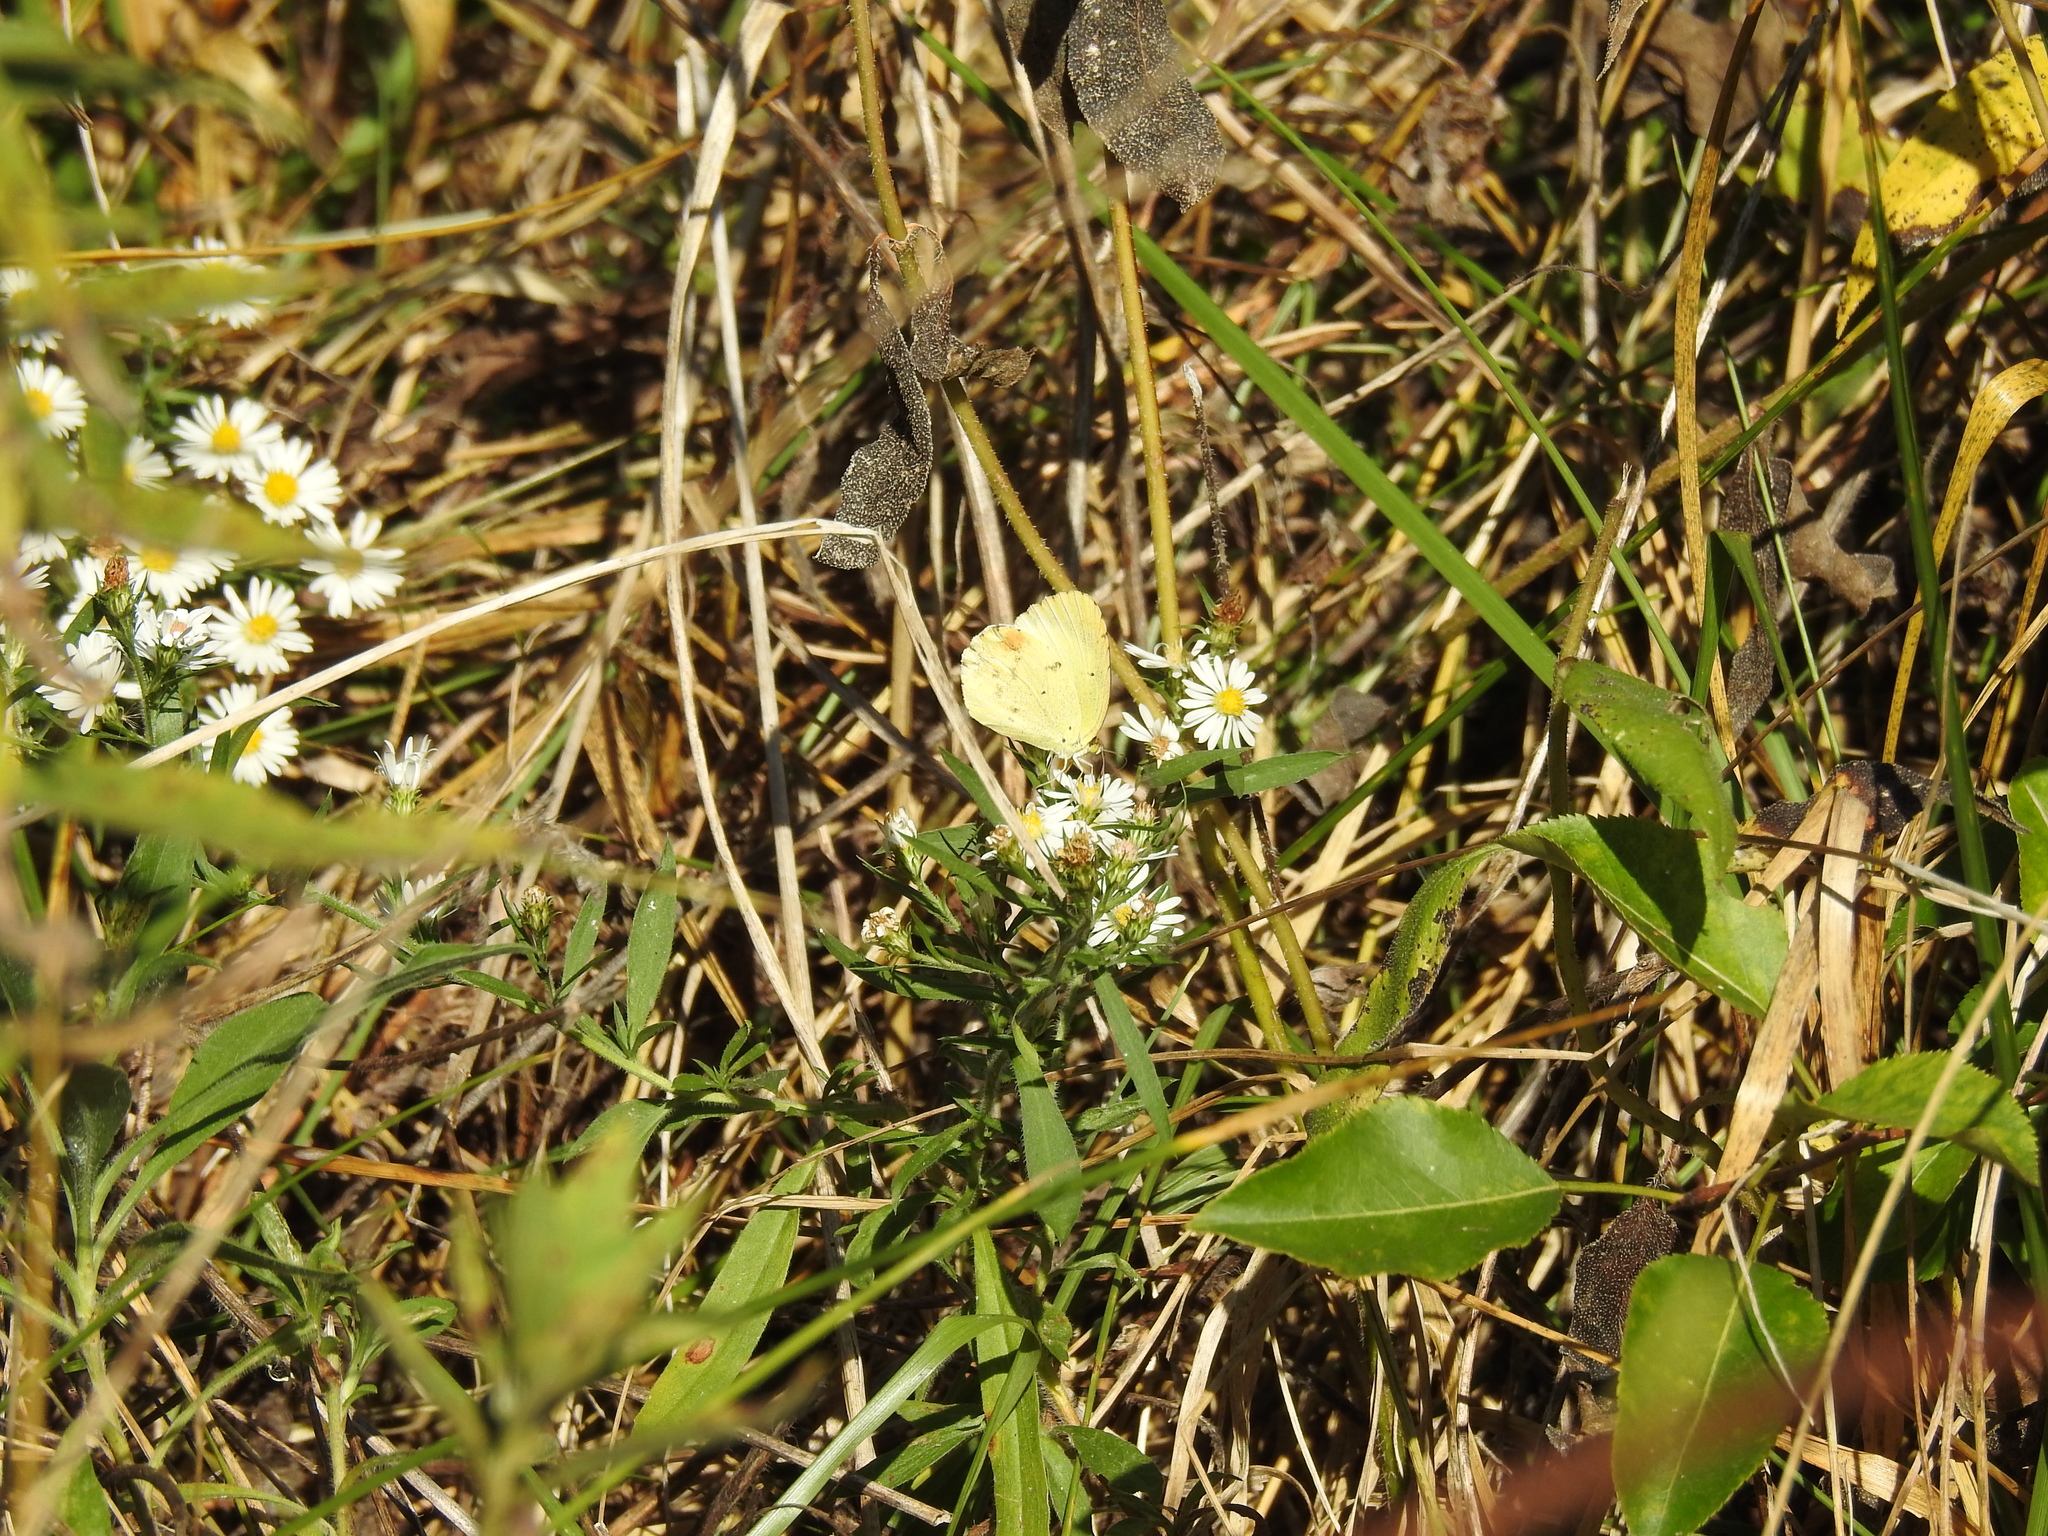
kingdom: Animalia
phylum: Arthropoda
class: Insecta
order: Lepidoptera
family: Pieridae
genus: Pyrisitia
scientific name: Pyrisitia lisa
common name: Little yellow
